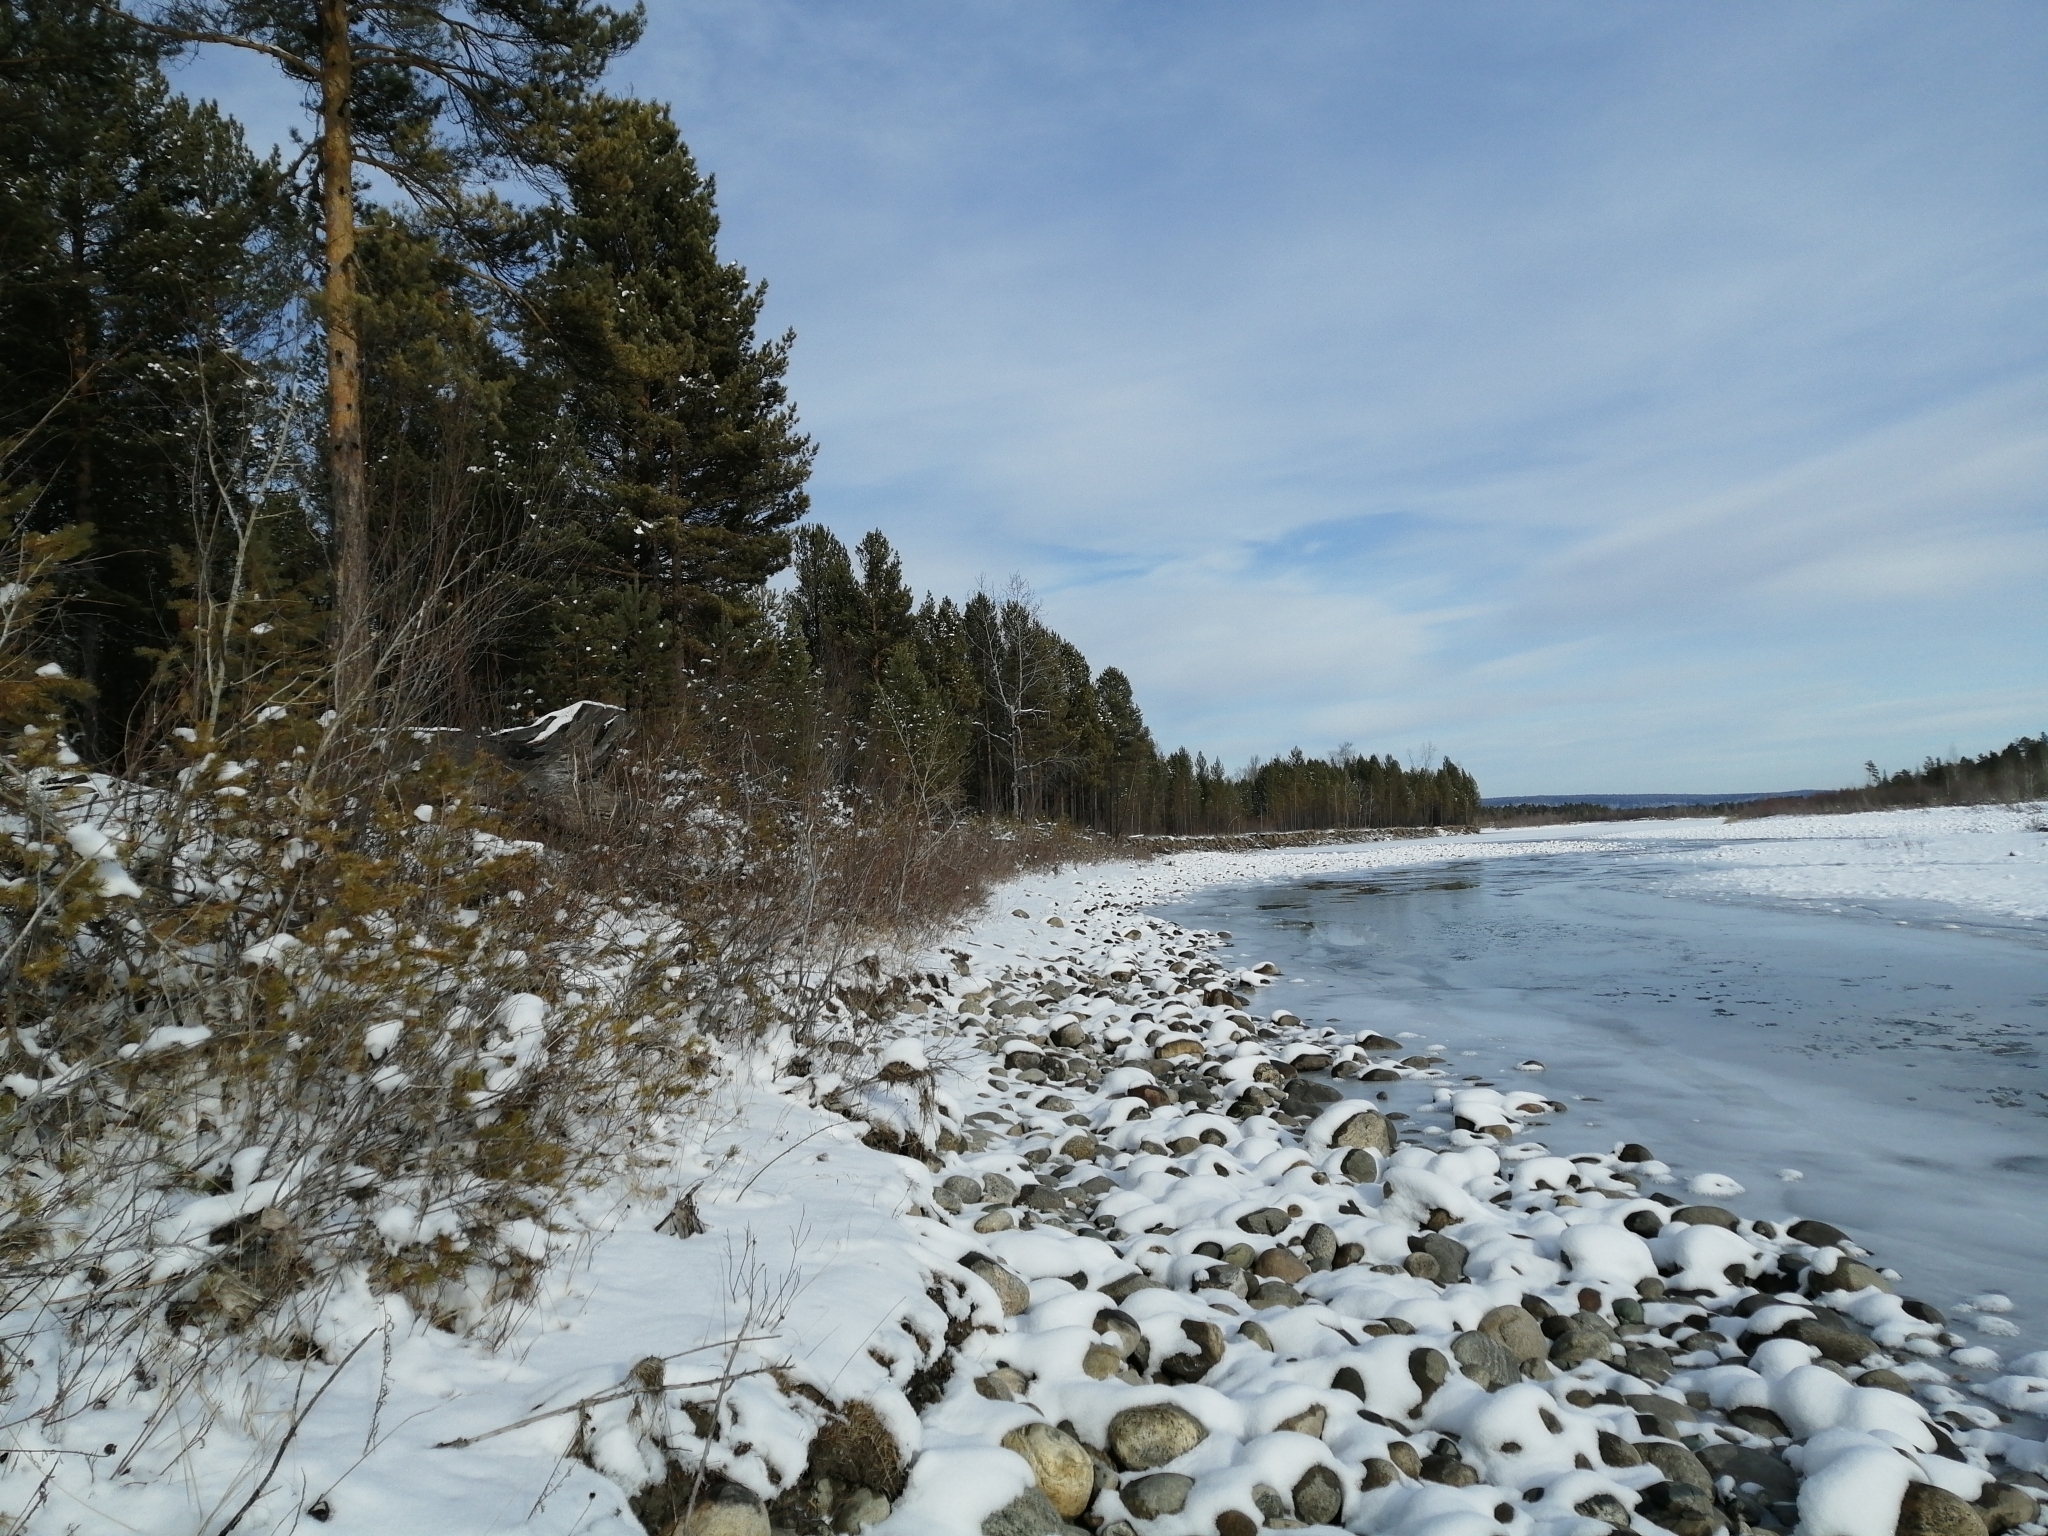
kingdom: Plantae
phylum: Tracheophyta
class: Pinopsida
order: Pinales
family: Pinaceae
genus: Pinus
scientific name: Pinus sylvestris
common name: Scots pine
